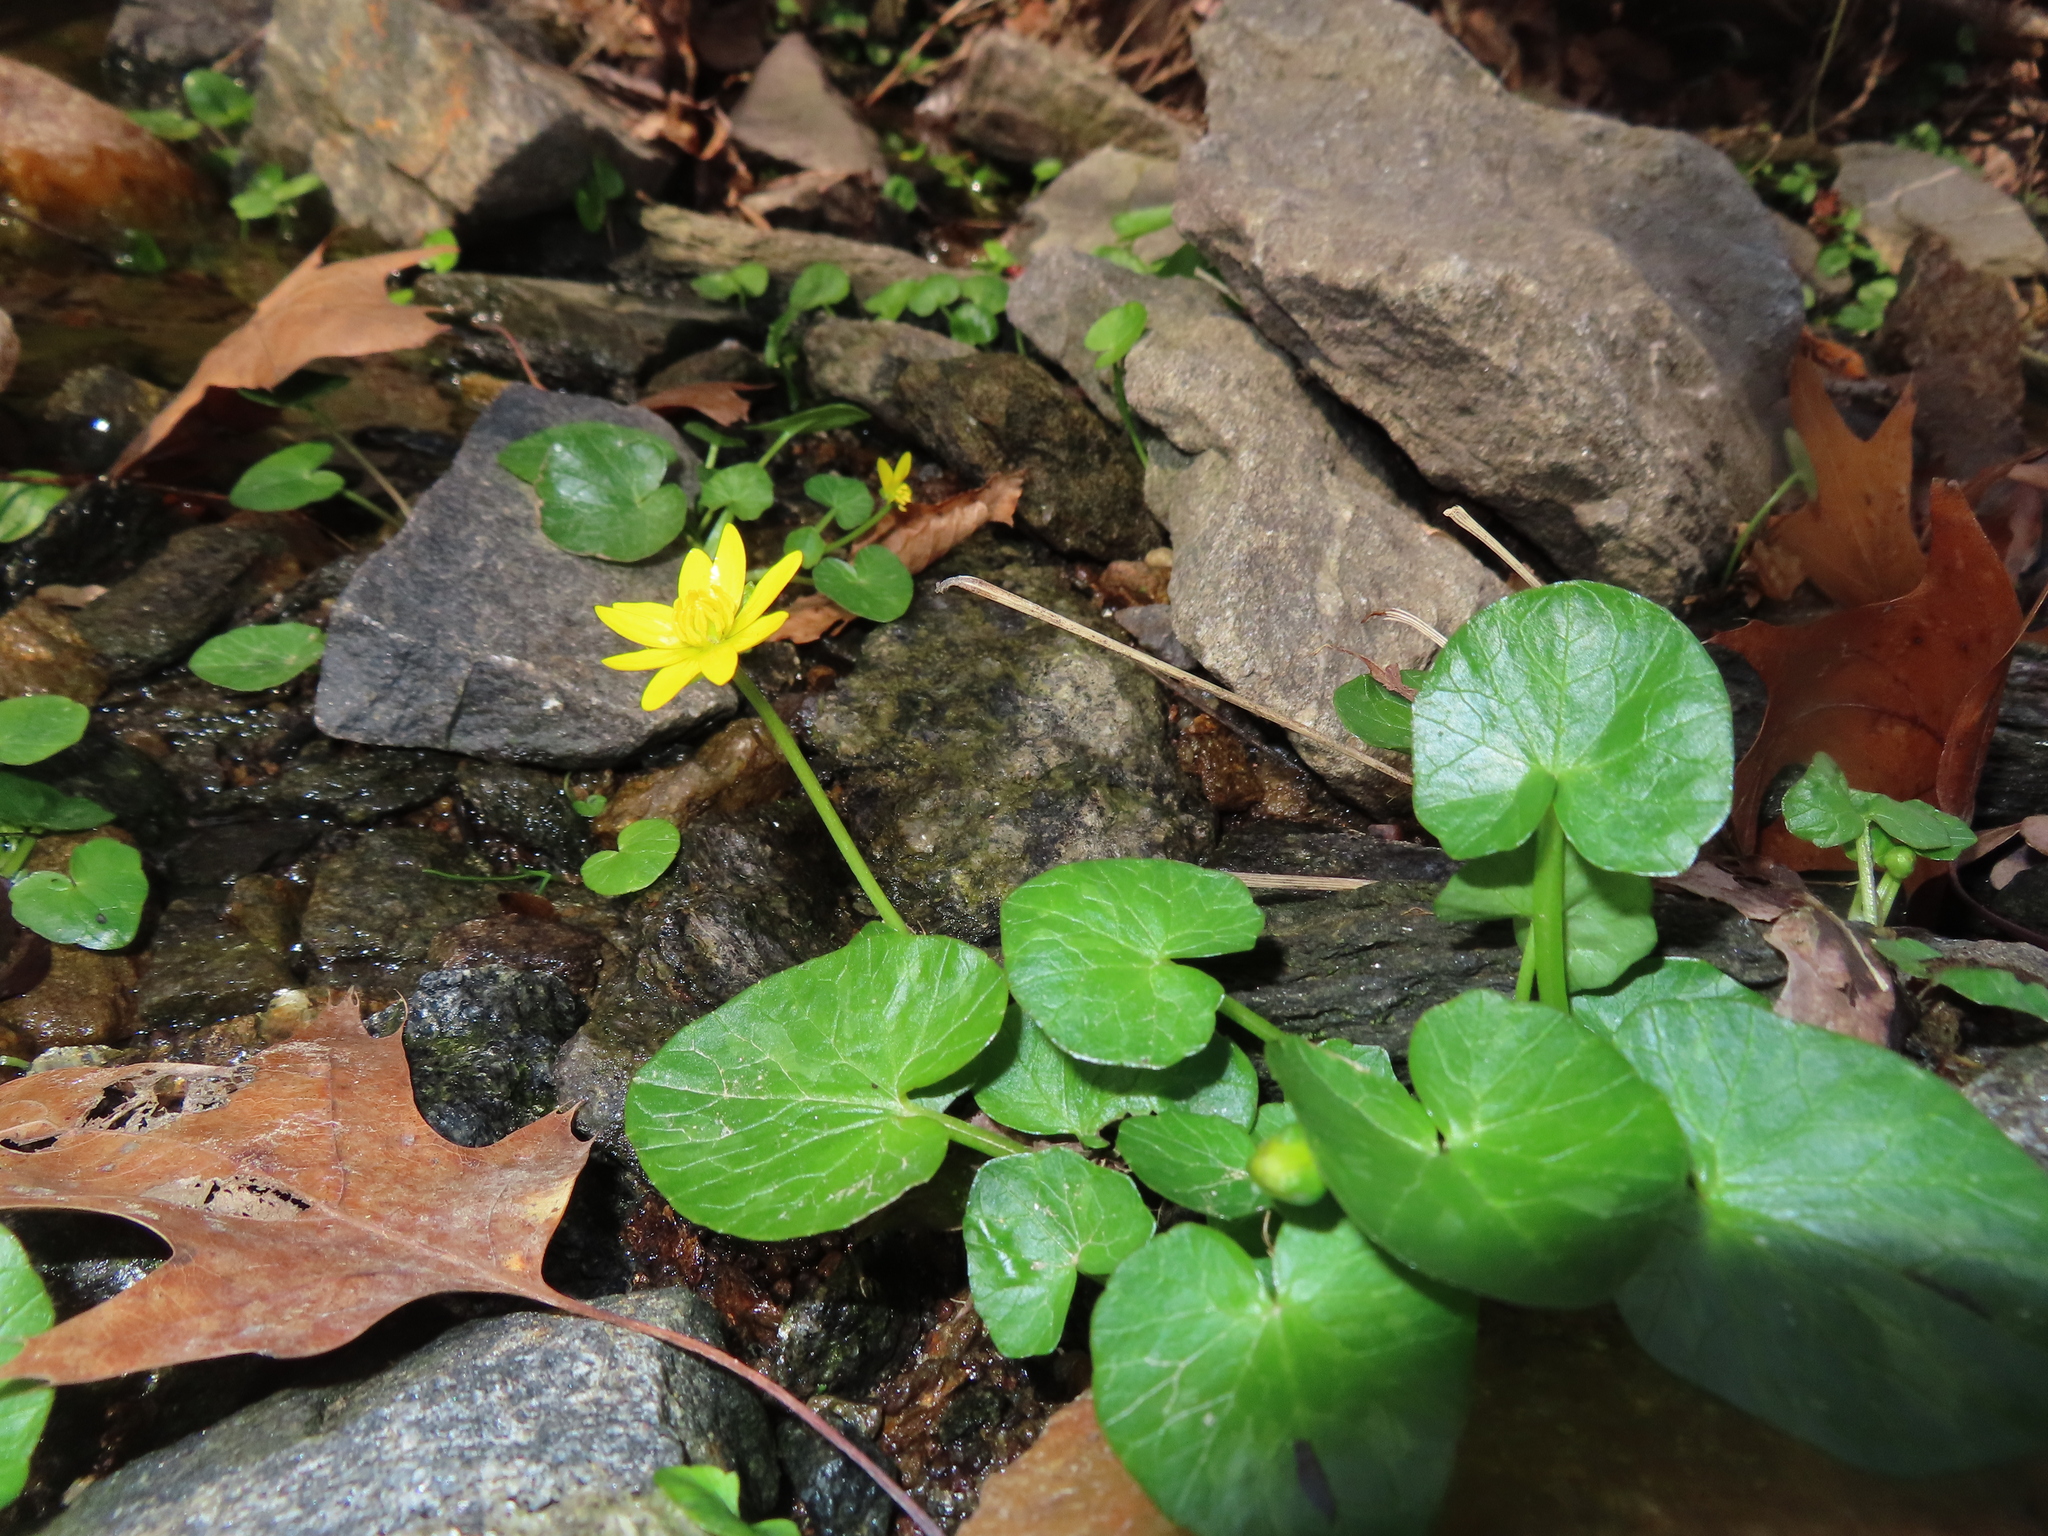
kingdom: Plantae
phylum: Tracheophyta
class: Magnoliopsida
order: Ranunculales
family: Ranunculaceae
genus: Ficaria
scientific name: Ficaria verna
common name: Lesser celandine
